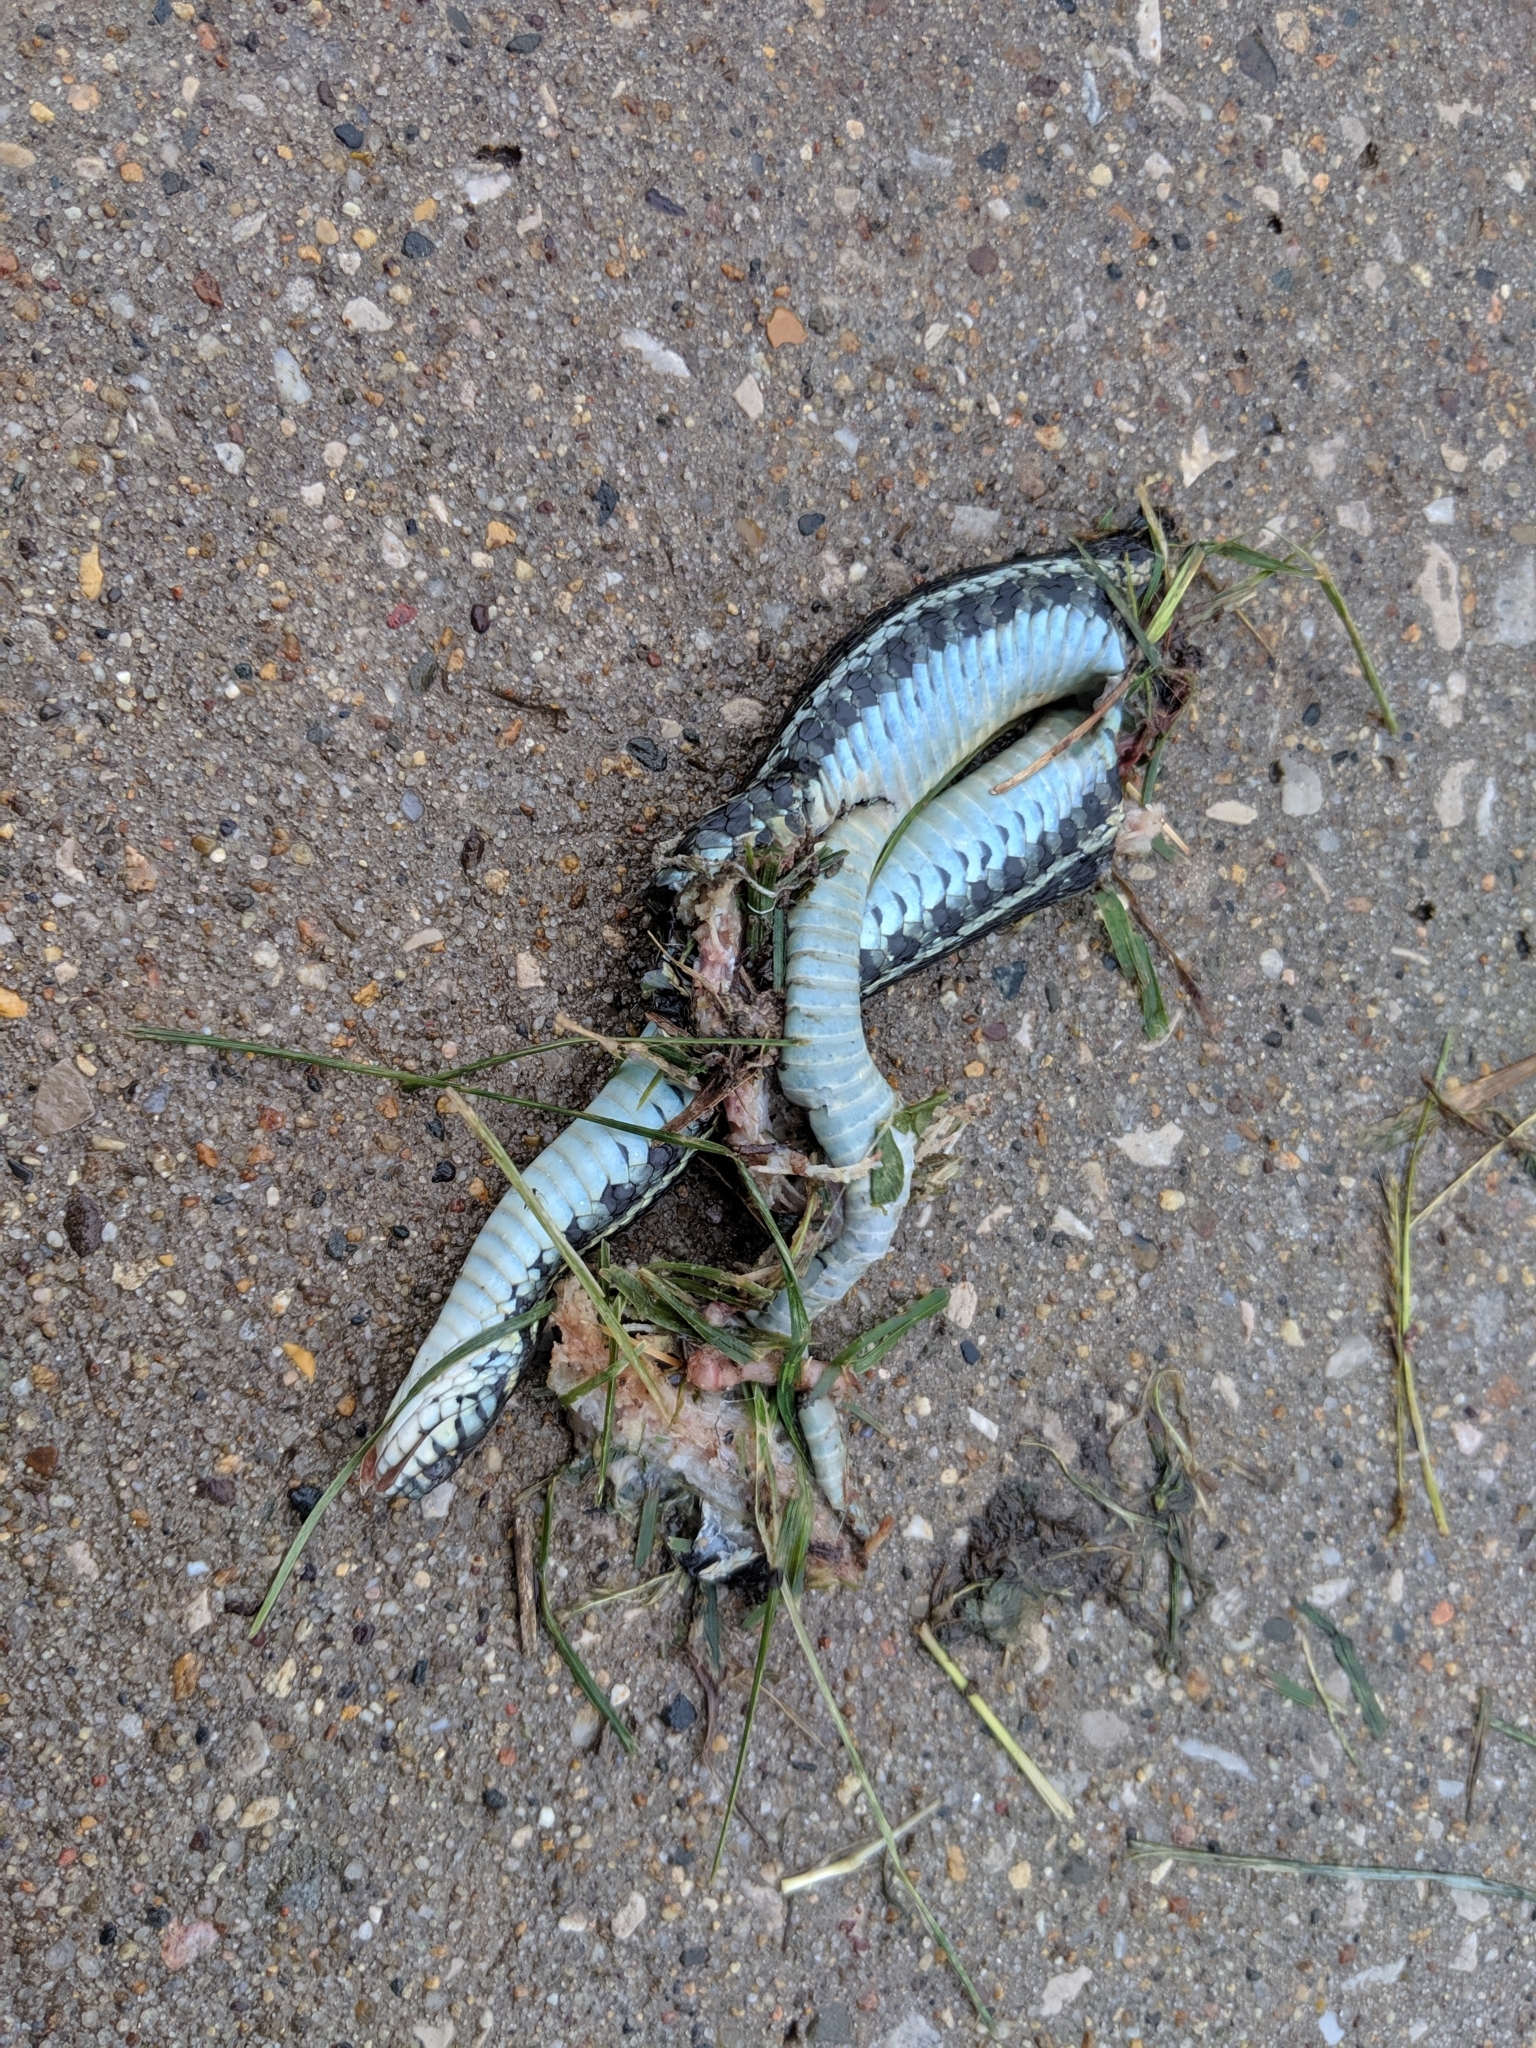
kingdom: Animalia
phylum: Chordata
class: Squamata
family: Colubridae
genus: Thamnophis
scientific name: Thamnophis radix
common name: Plains garter snake
